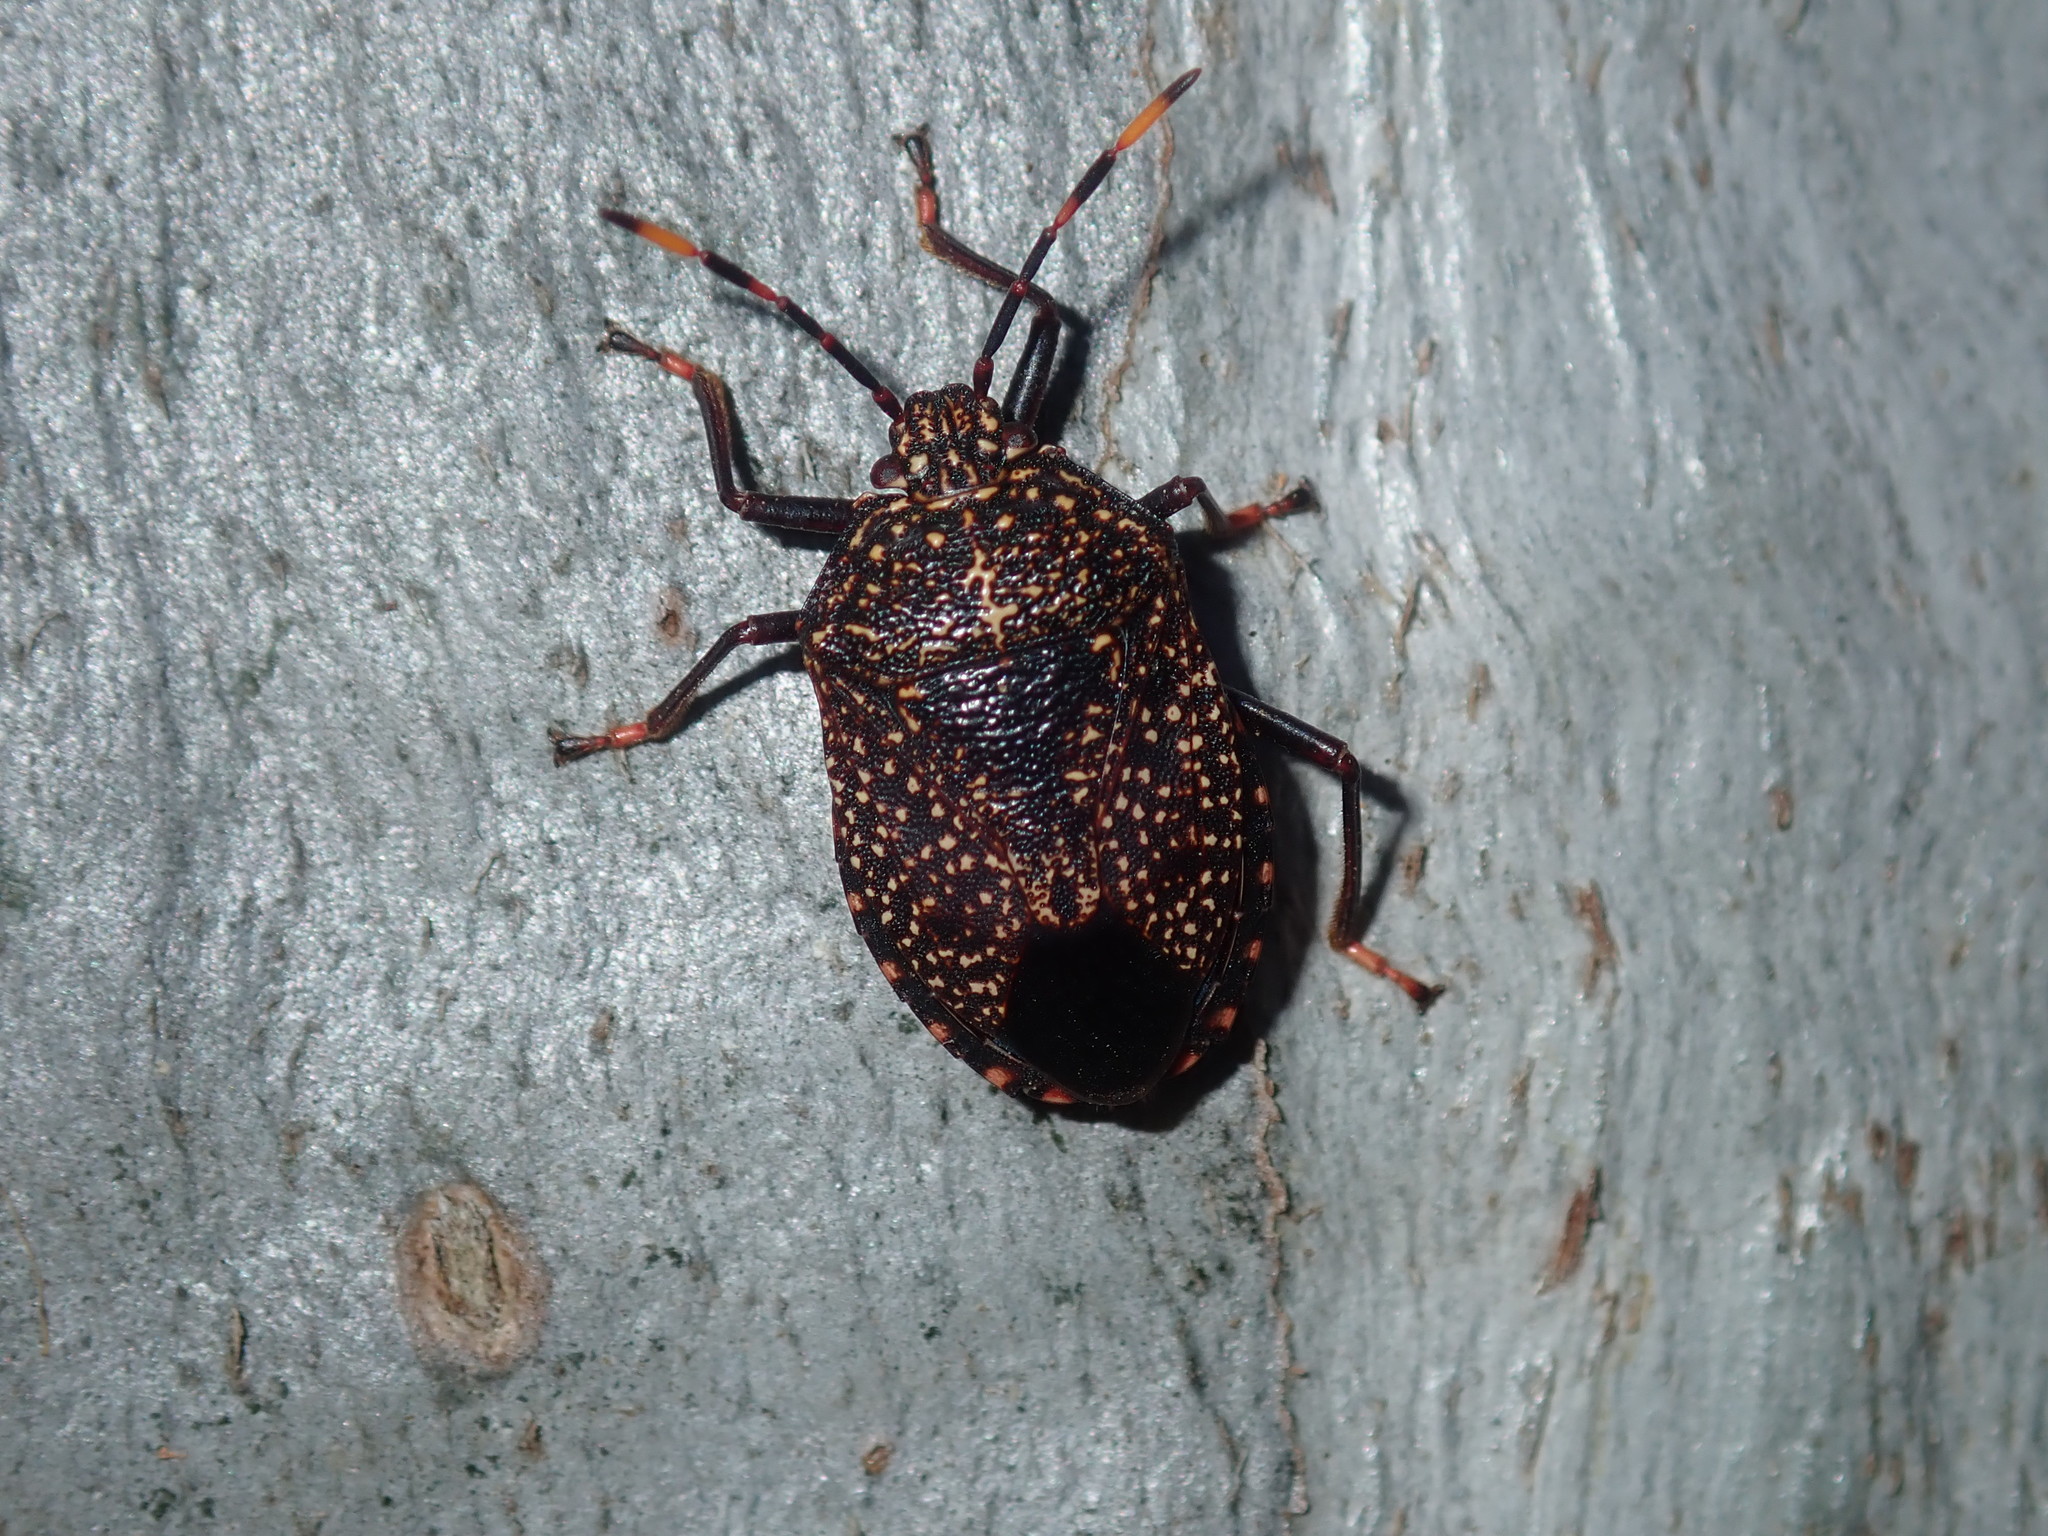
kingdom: Animalia
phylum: Arthropoda
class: Insecta
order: Hemiptera
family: Pentatomidae
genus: Notius
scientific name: Notius
